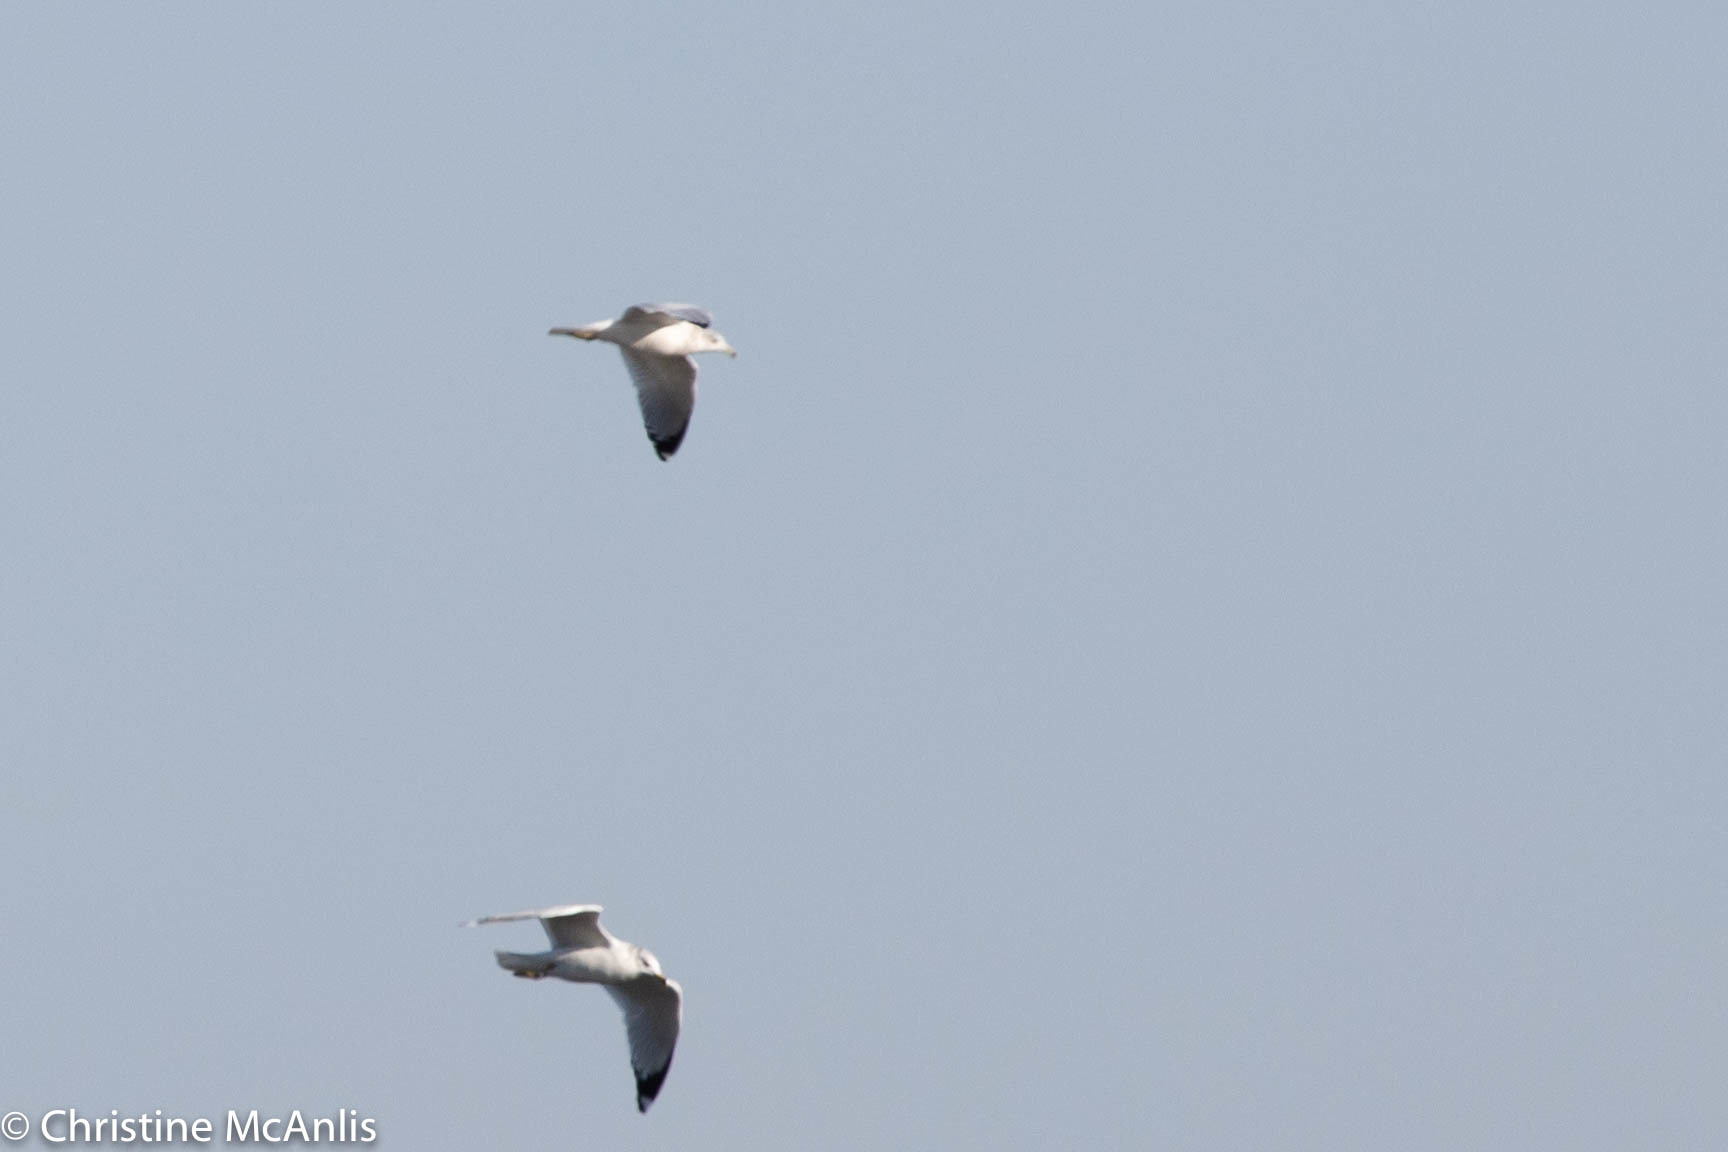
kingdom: Animalia
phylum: Chordata
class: Aves
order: Charadriiformes
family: Laridae
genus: Larus
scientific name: Larus delawarensis
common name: Ring-billed gull
